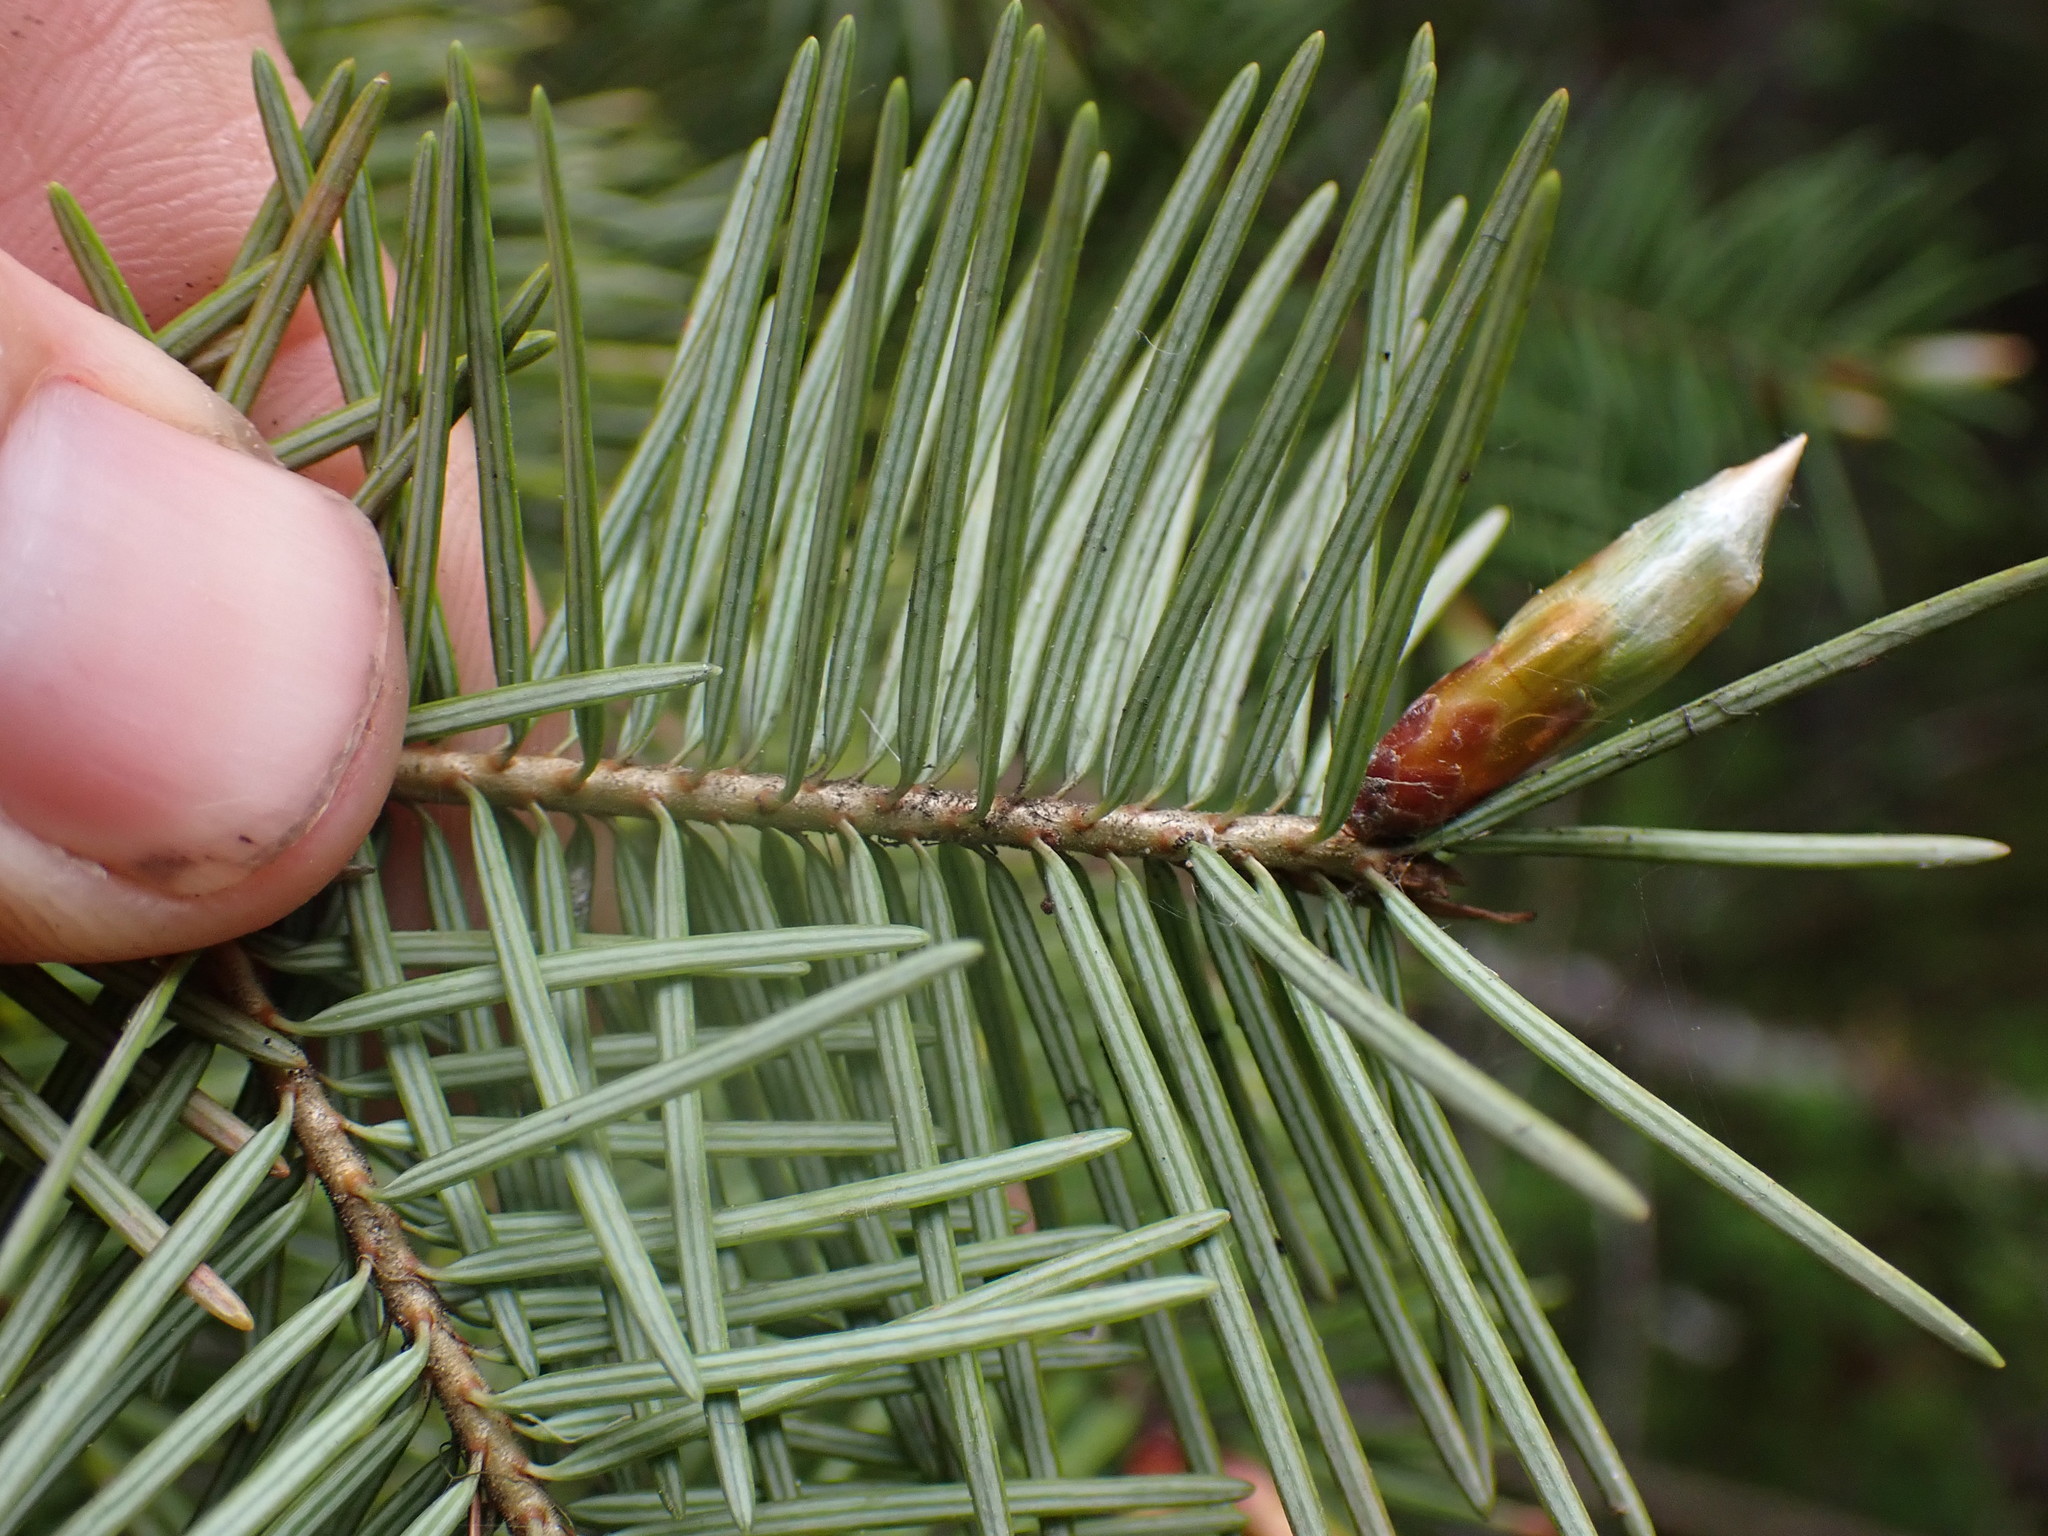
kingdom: Plantae
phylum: Tracheophyta
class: Pinopsida
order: Pinales
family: Pinaceae
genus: Pseudotsuga
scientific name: Pseudotsuga menziesii
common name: Douglas fir
